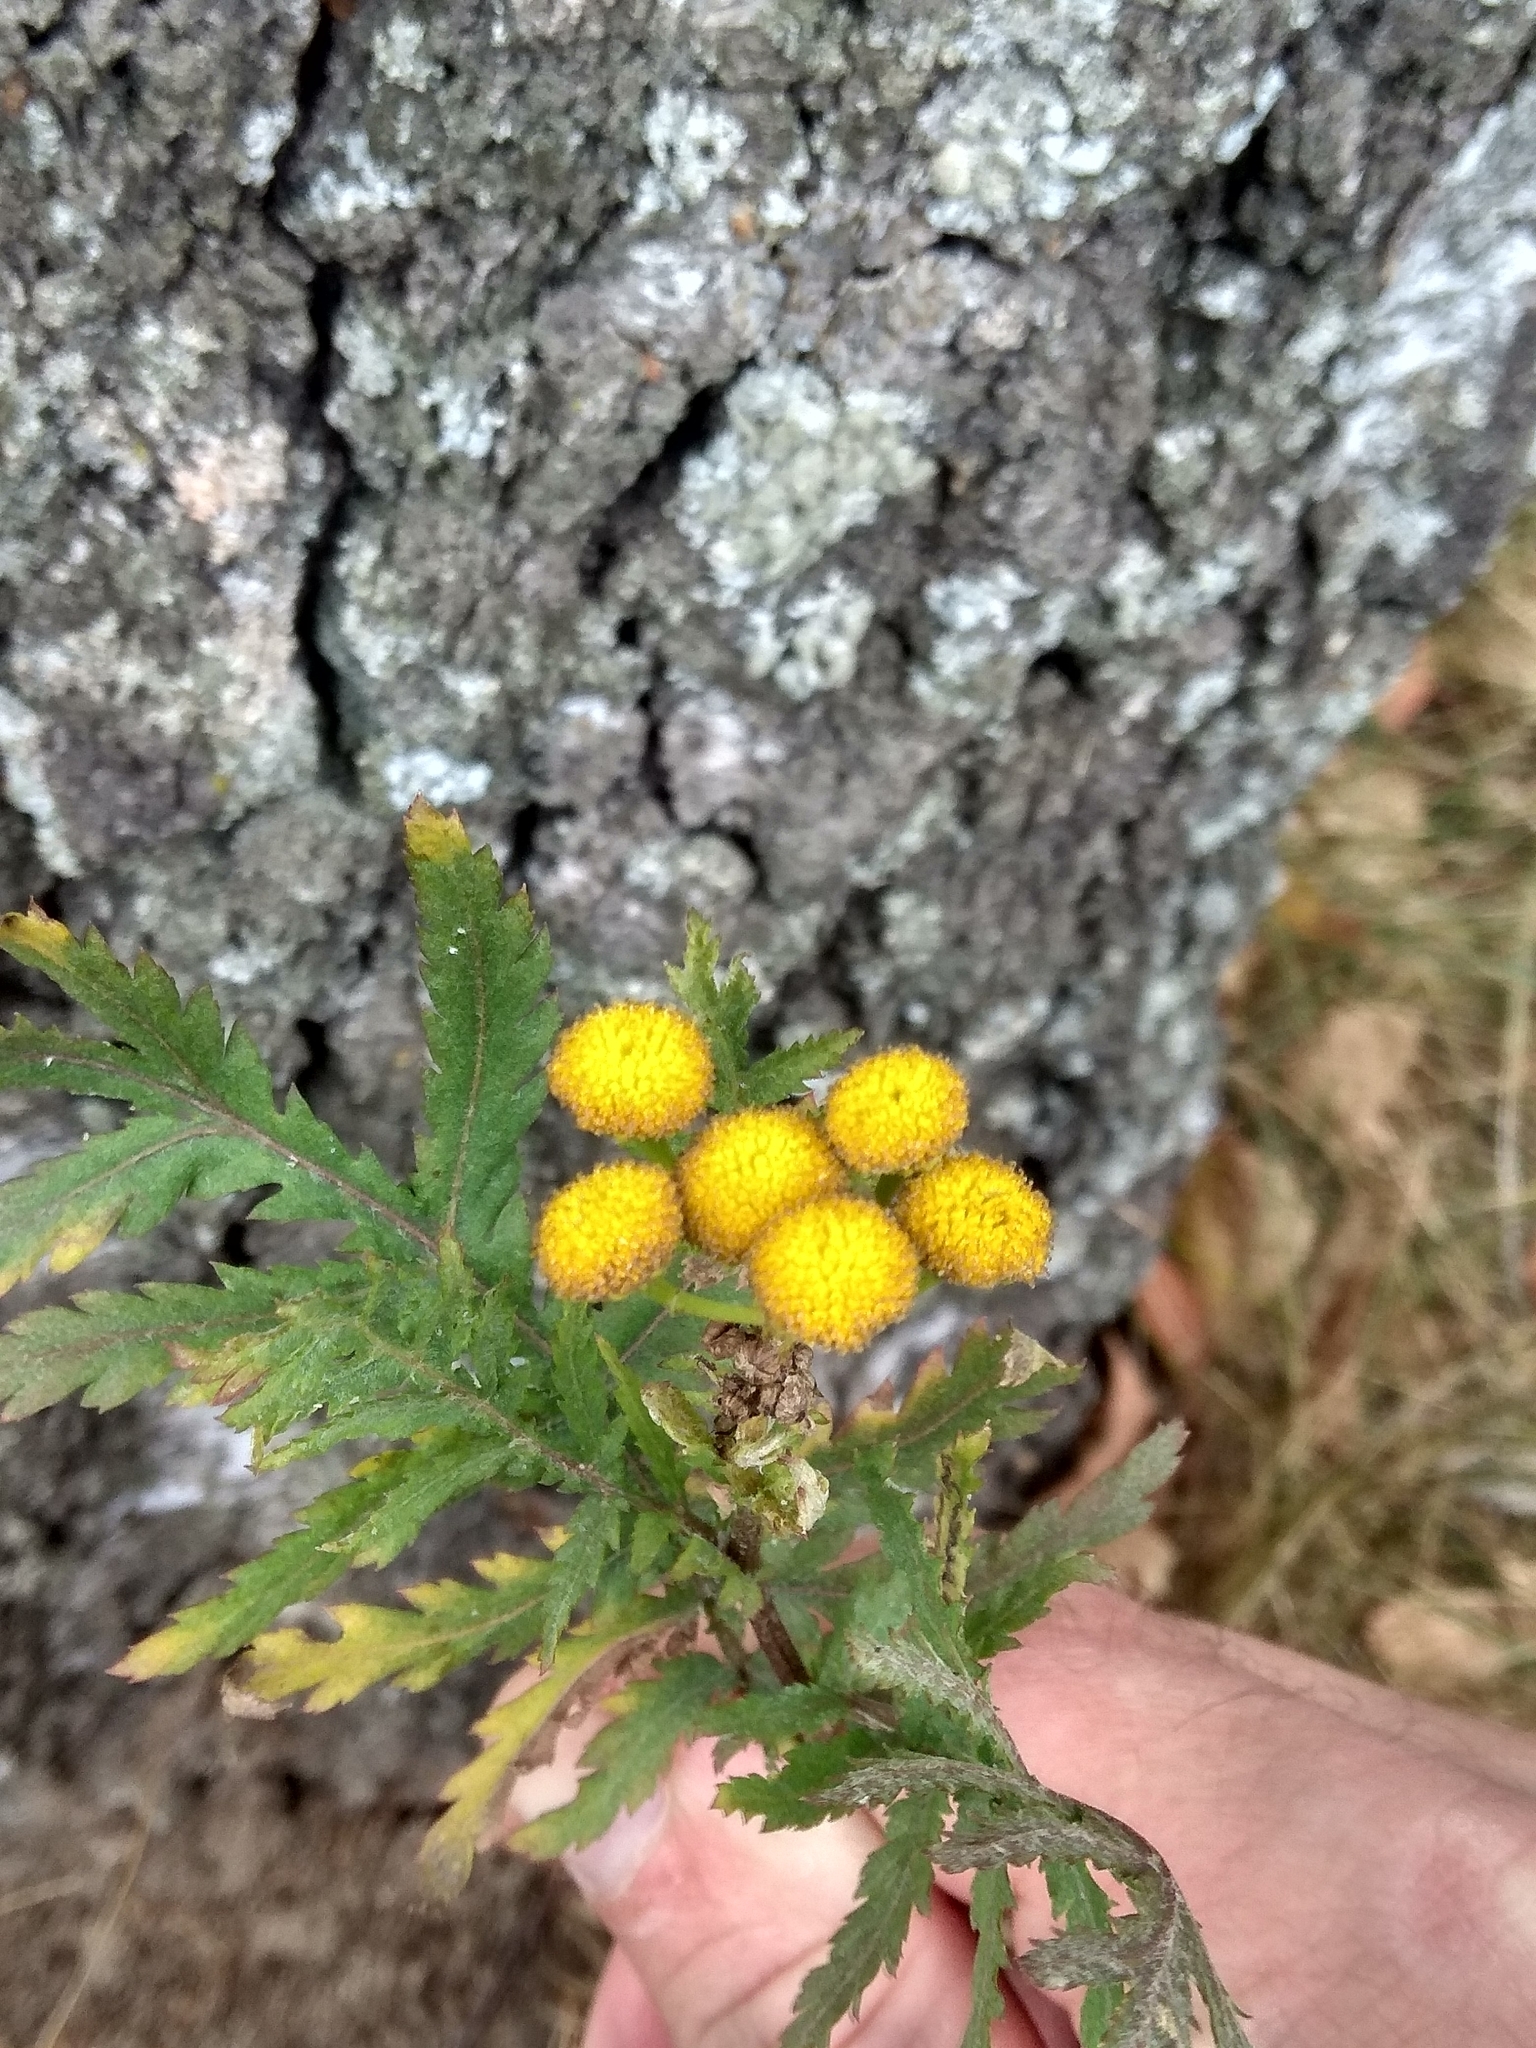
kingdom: Plantae
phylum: Tracheophyta
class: Magnoliopsida
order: Asterales
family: Asteraceae
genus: Tanacetum
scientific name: Tanacetum vulgare
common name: Common tansy
